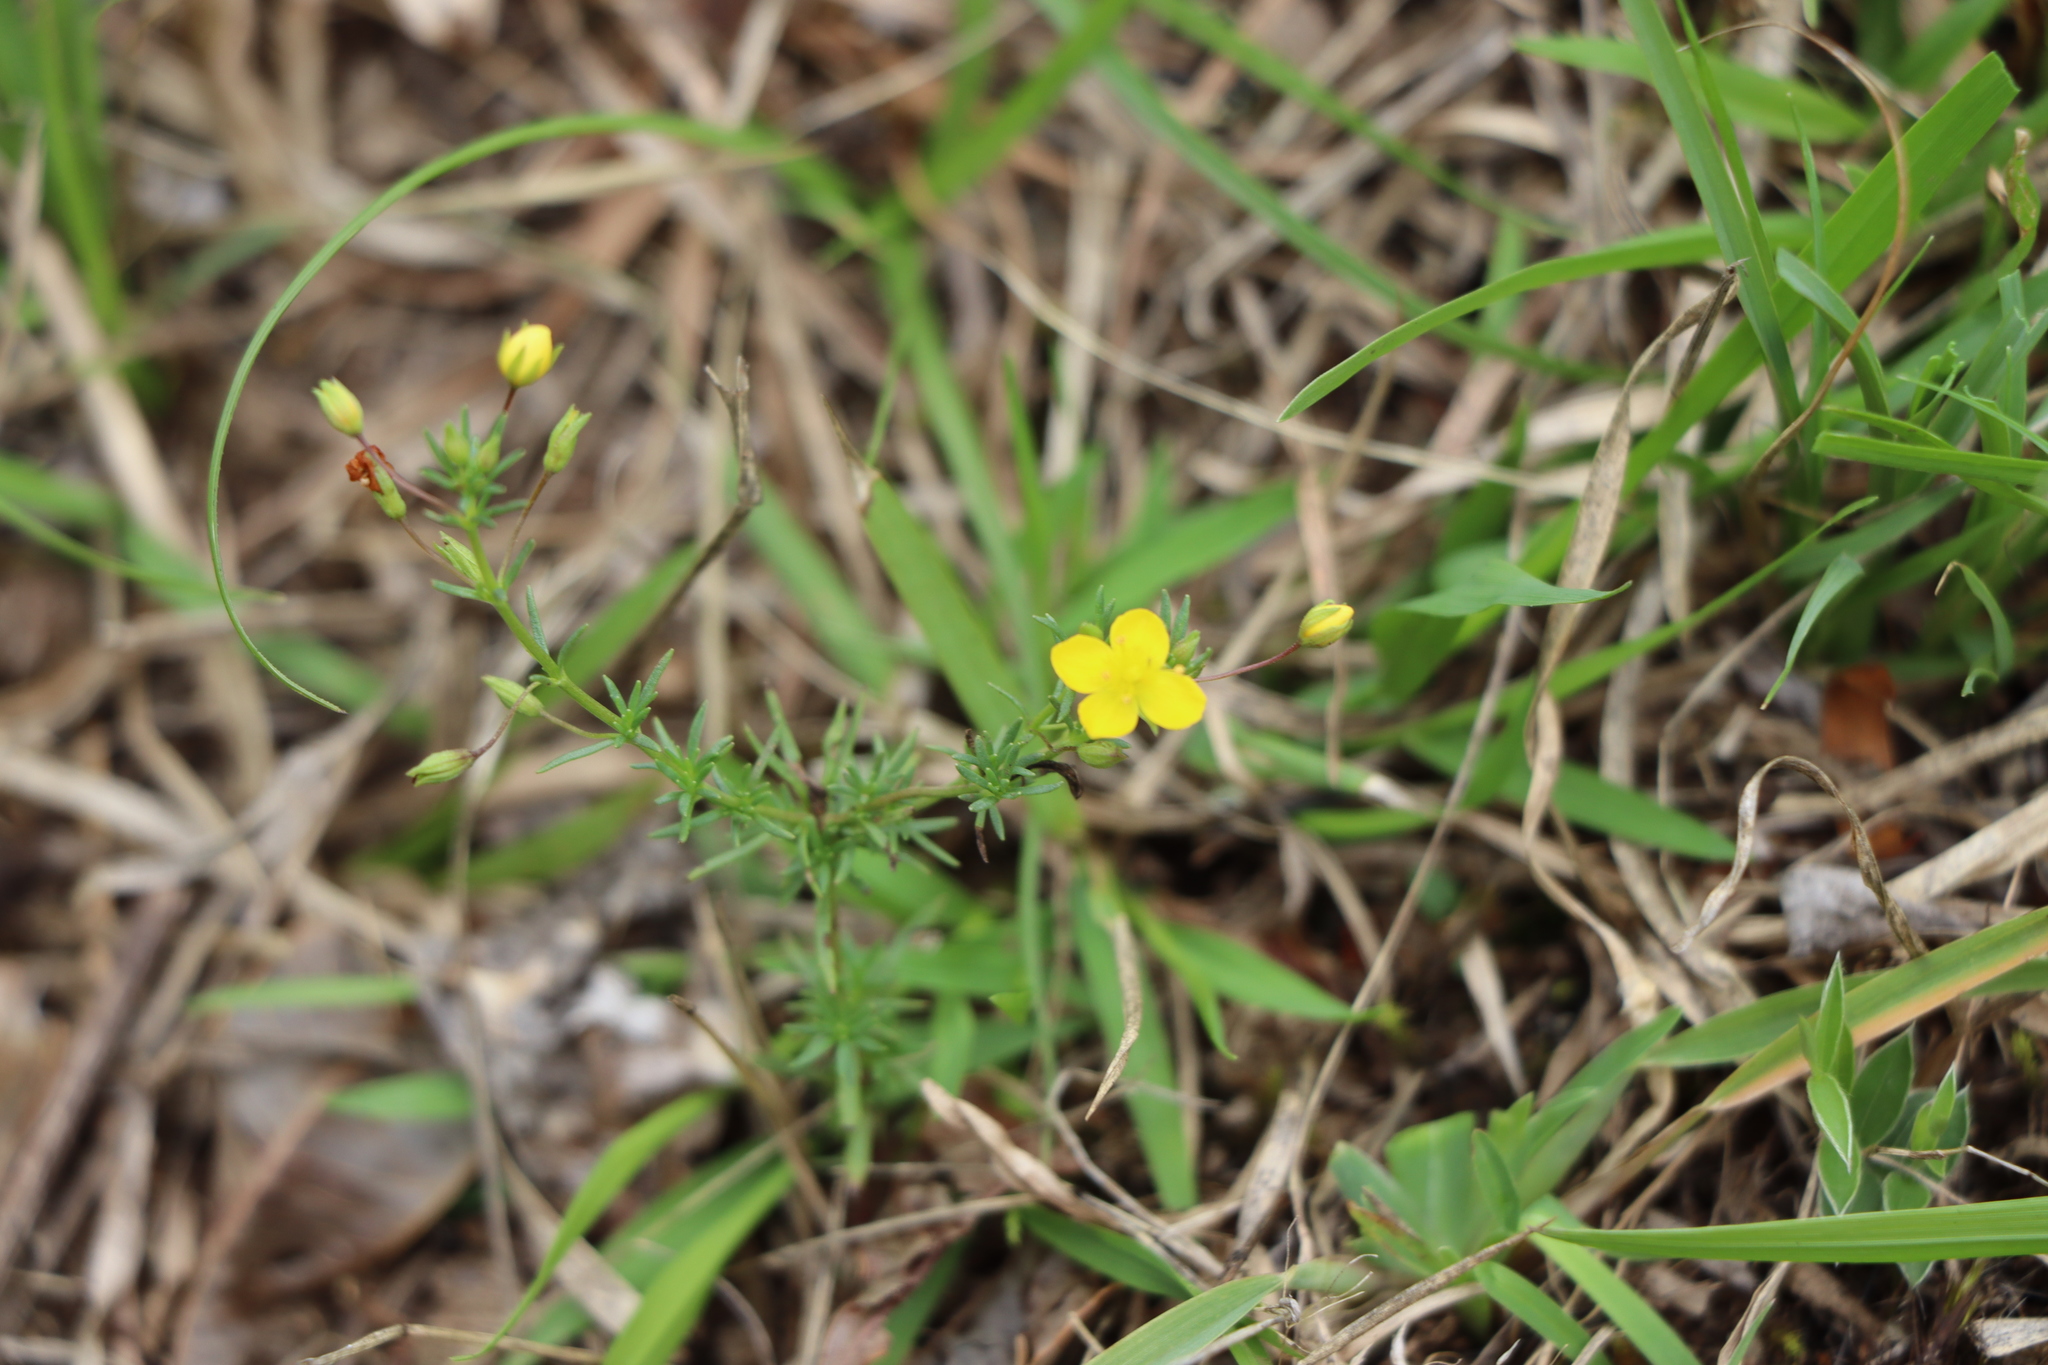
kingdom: Plantae
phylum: Tracheophyta
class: Magnoliopsida
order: Lamiales
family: Plantaginaceae
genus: Scoparia
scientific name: Scoparia montevidensis
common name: Broomwort
